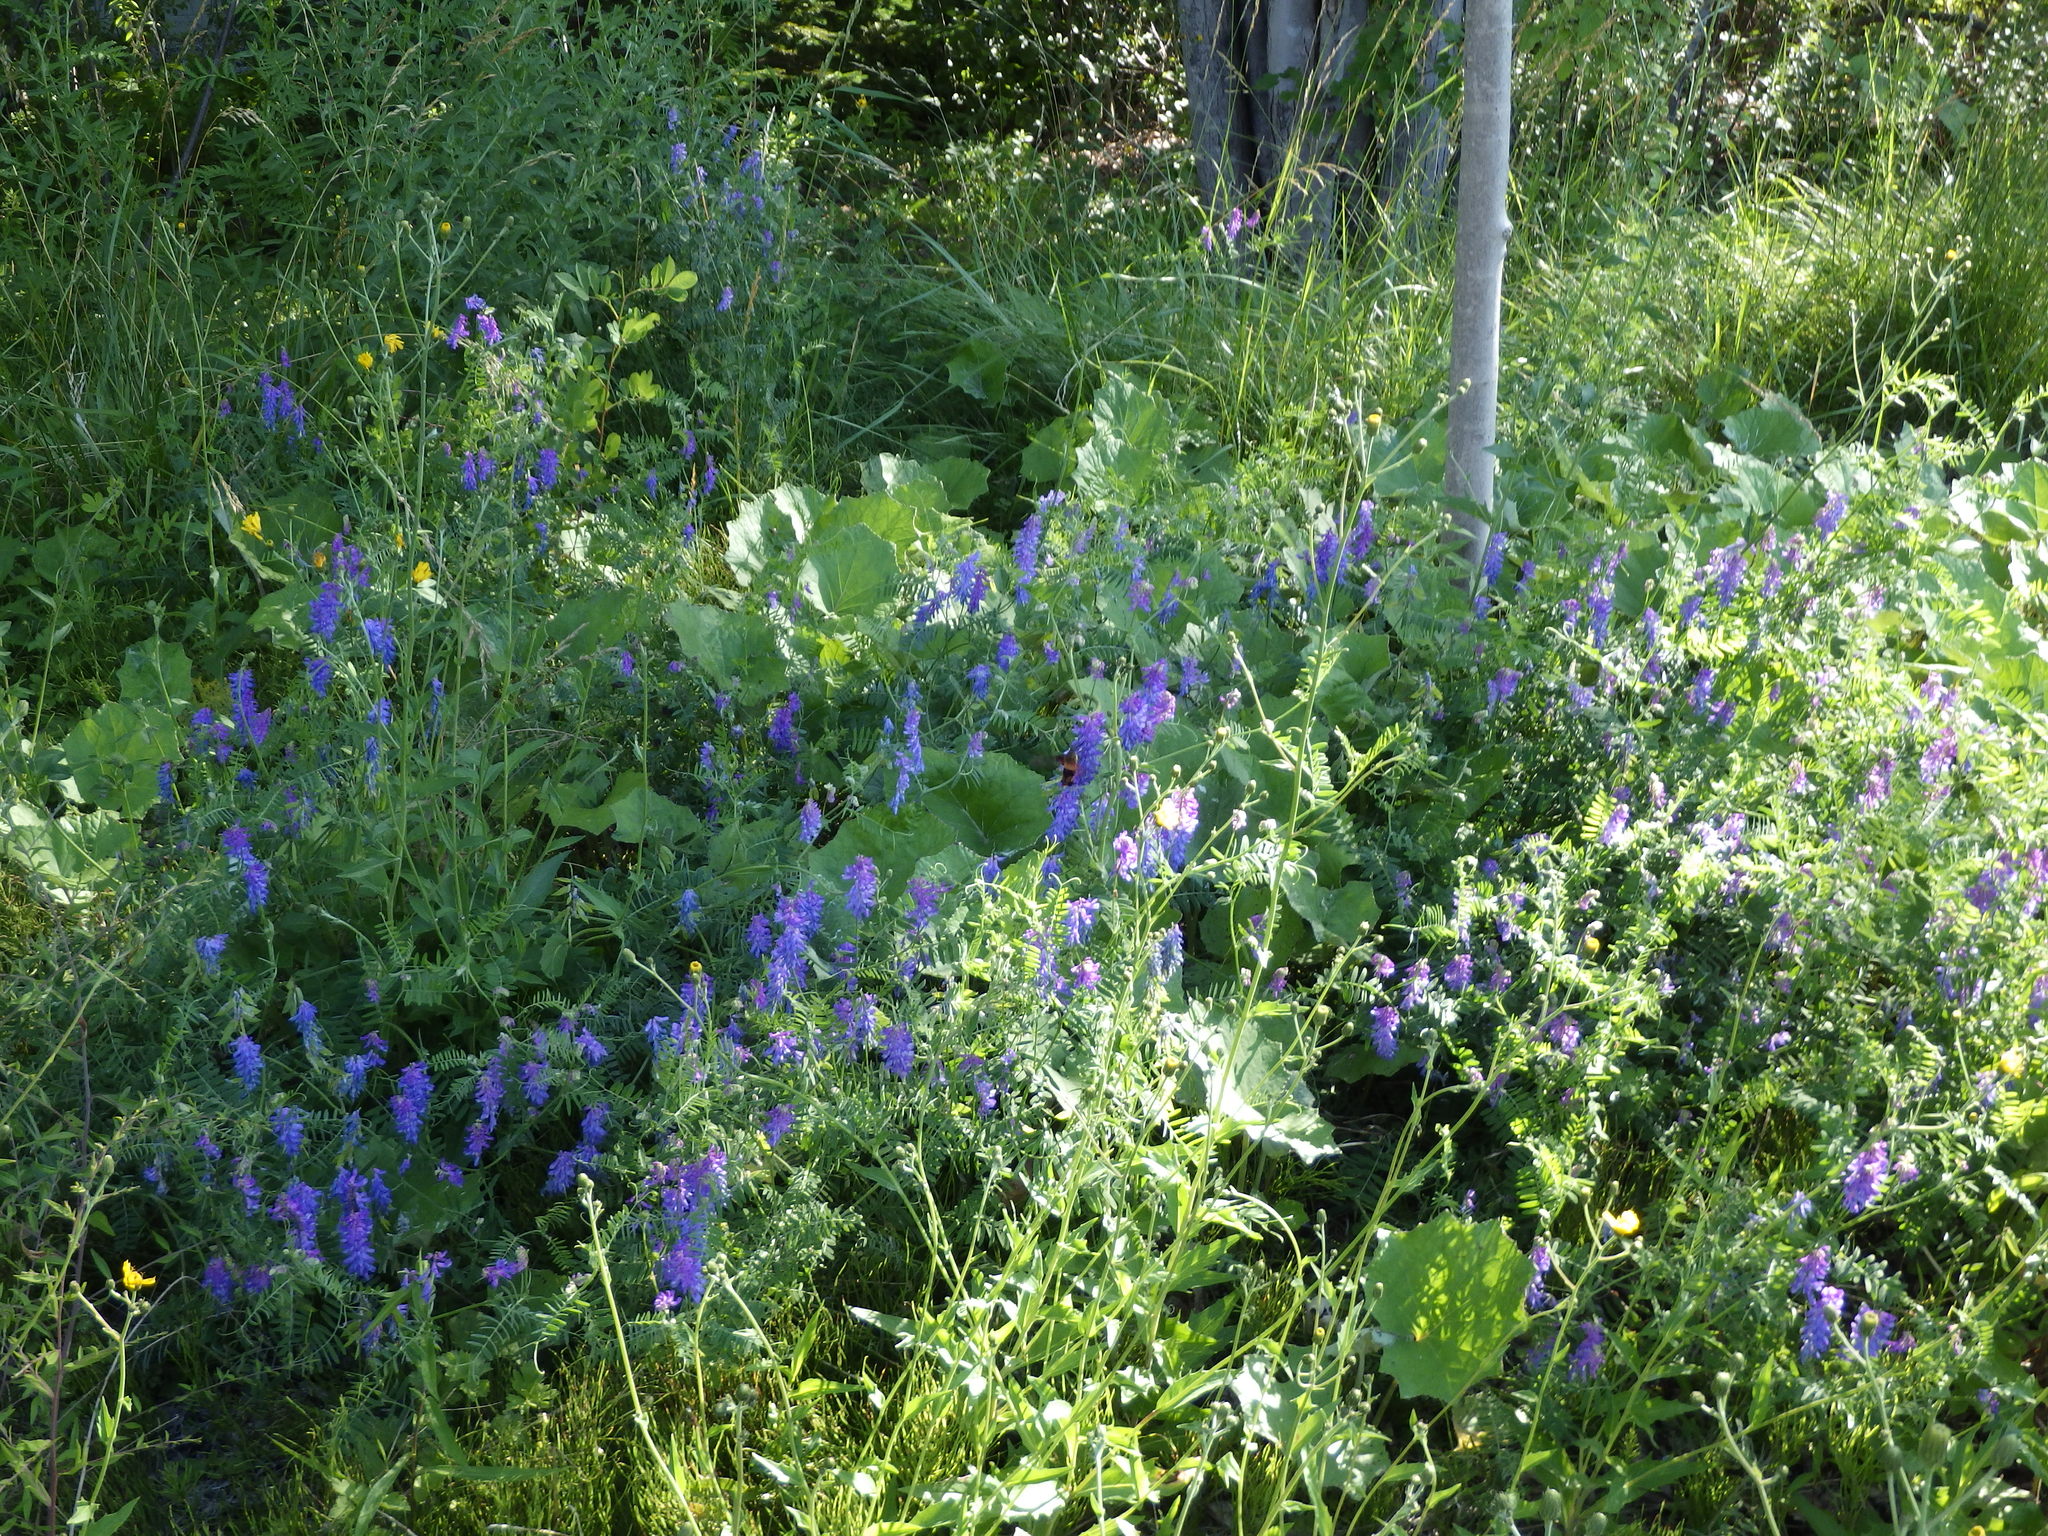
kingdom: Plantae
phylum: Tracheophyta
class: Magnoliopsida
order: Fabales
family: Fabaceae
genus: Vicia
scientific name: Vicia cracca
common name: Bird vetch
